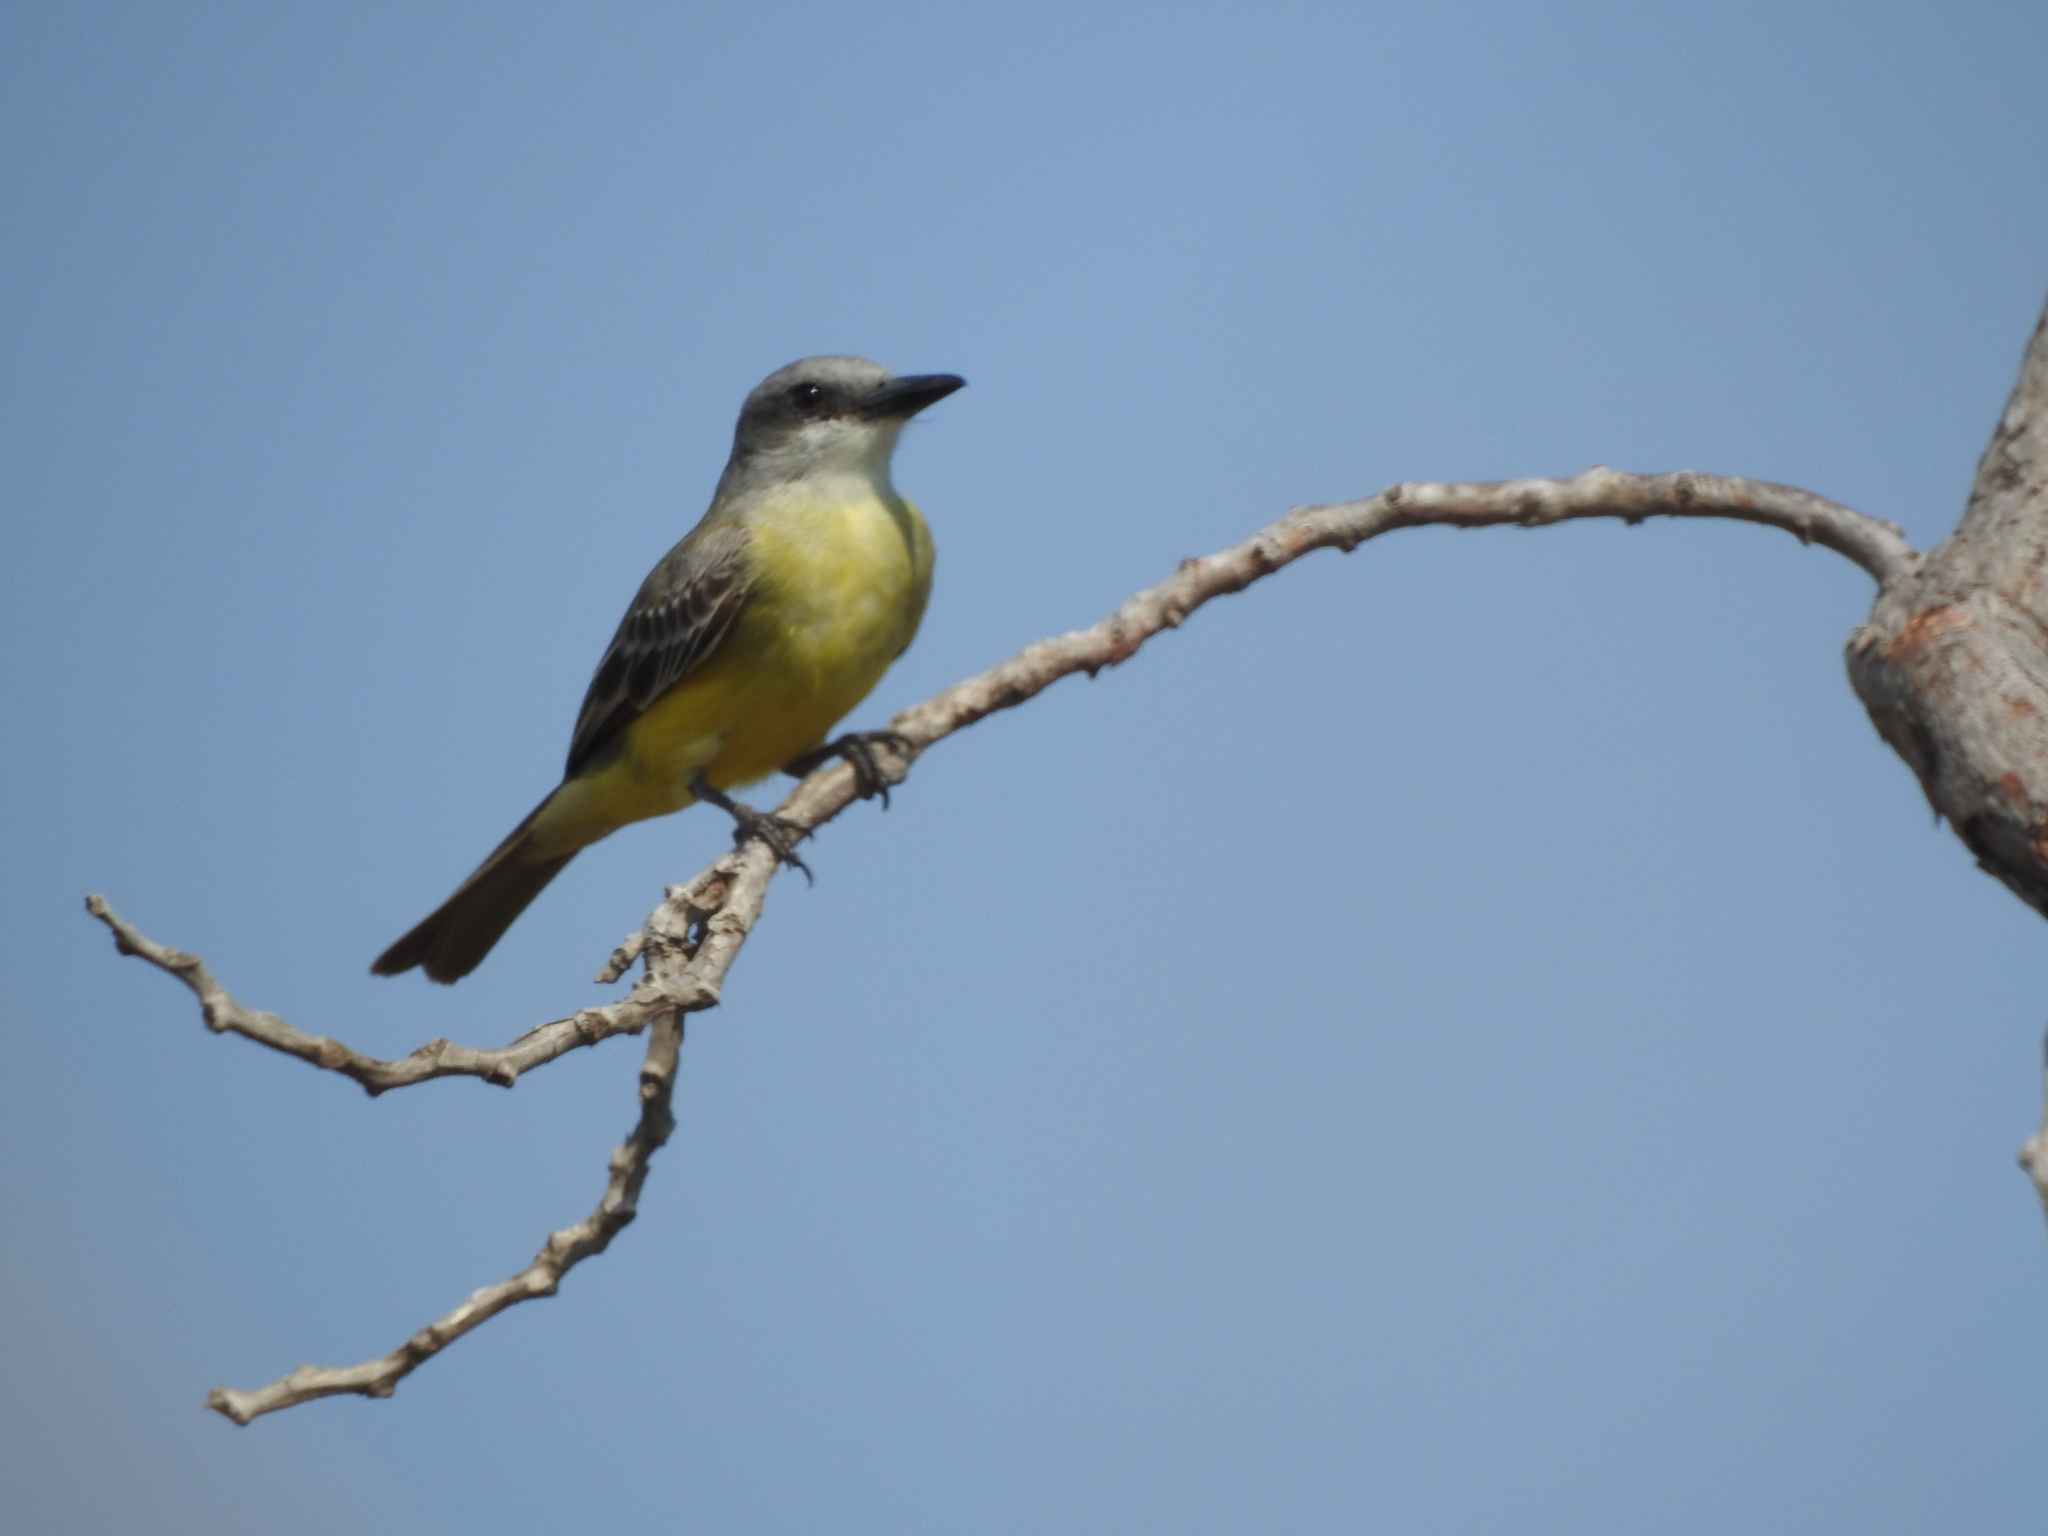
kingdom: Animalia
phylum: Chordata
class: Aves
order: Passeriformes
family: Tyrannidae
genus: Tyrannus
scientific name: Tyrannus melancholicus
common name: Tropical kingbird
